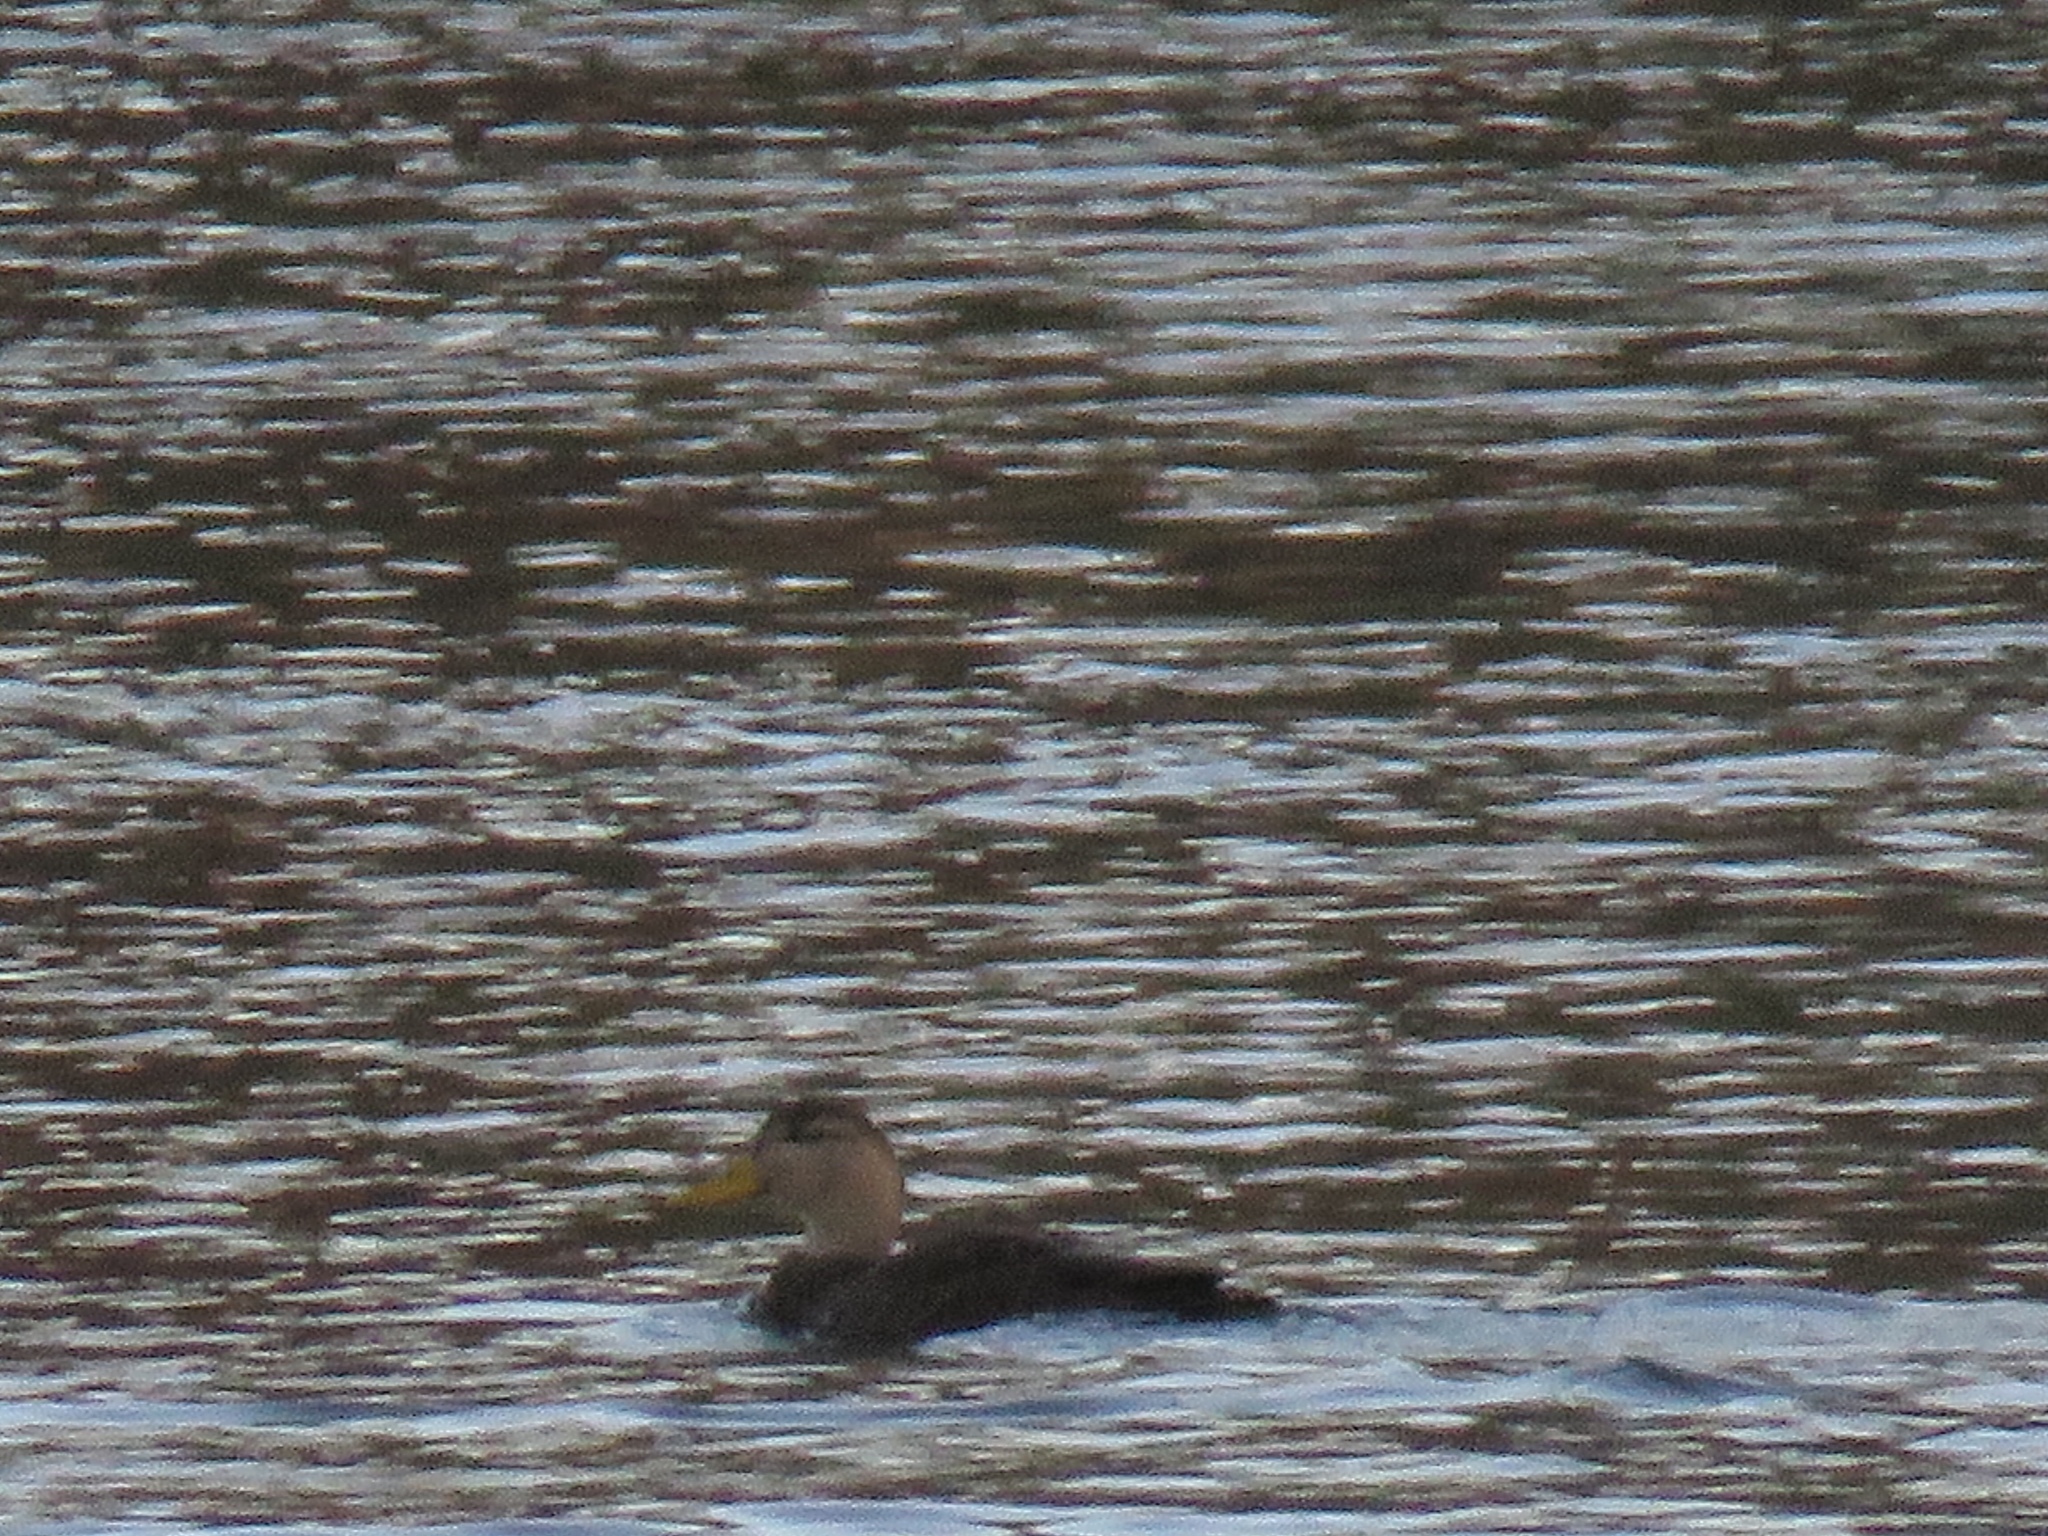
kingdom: Animalia
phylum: Chordata
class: Aves
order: Anseriformes
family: Anatidae
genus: Anas
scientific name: Anas rubripes
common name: American black duck
